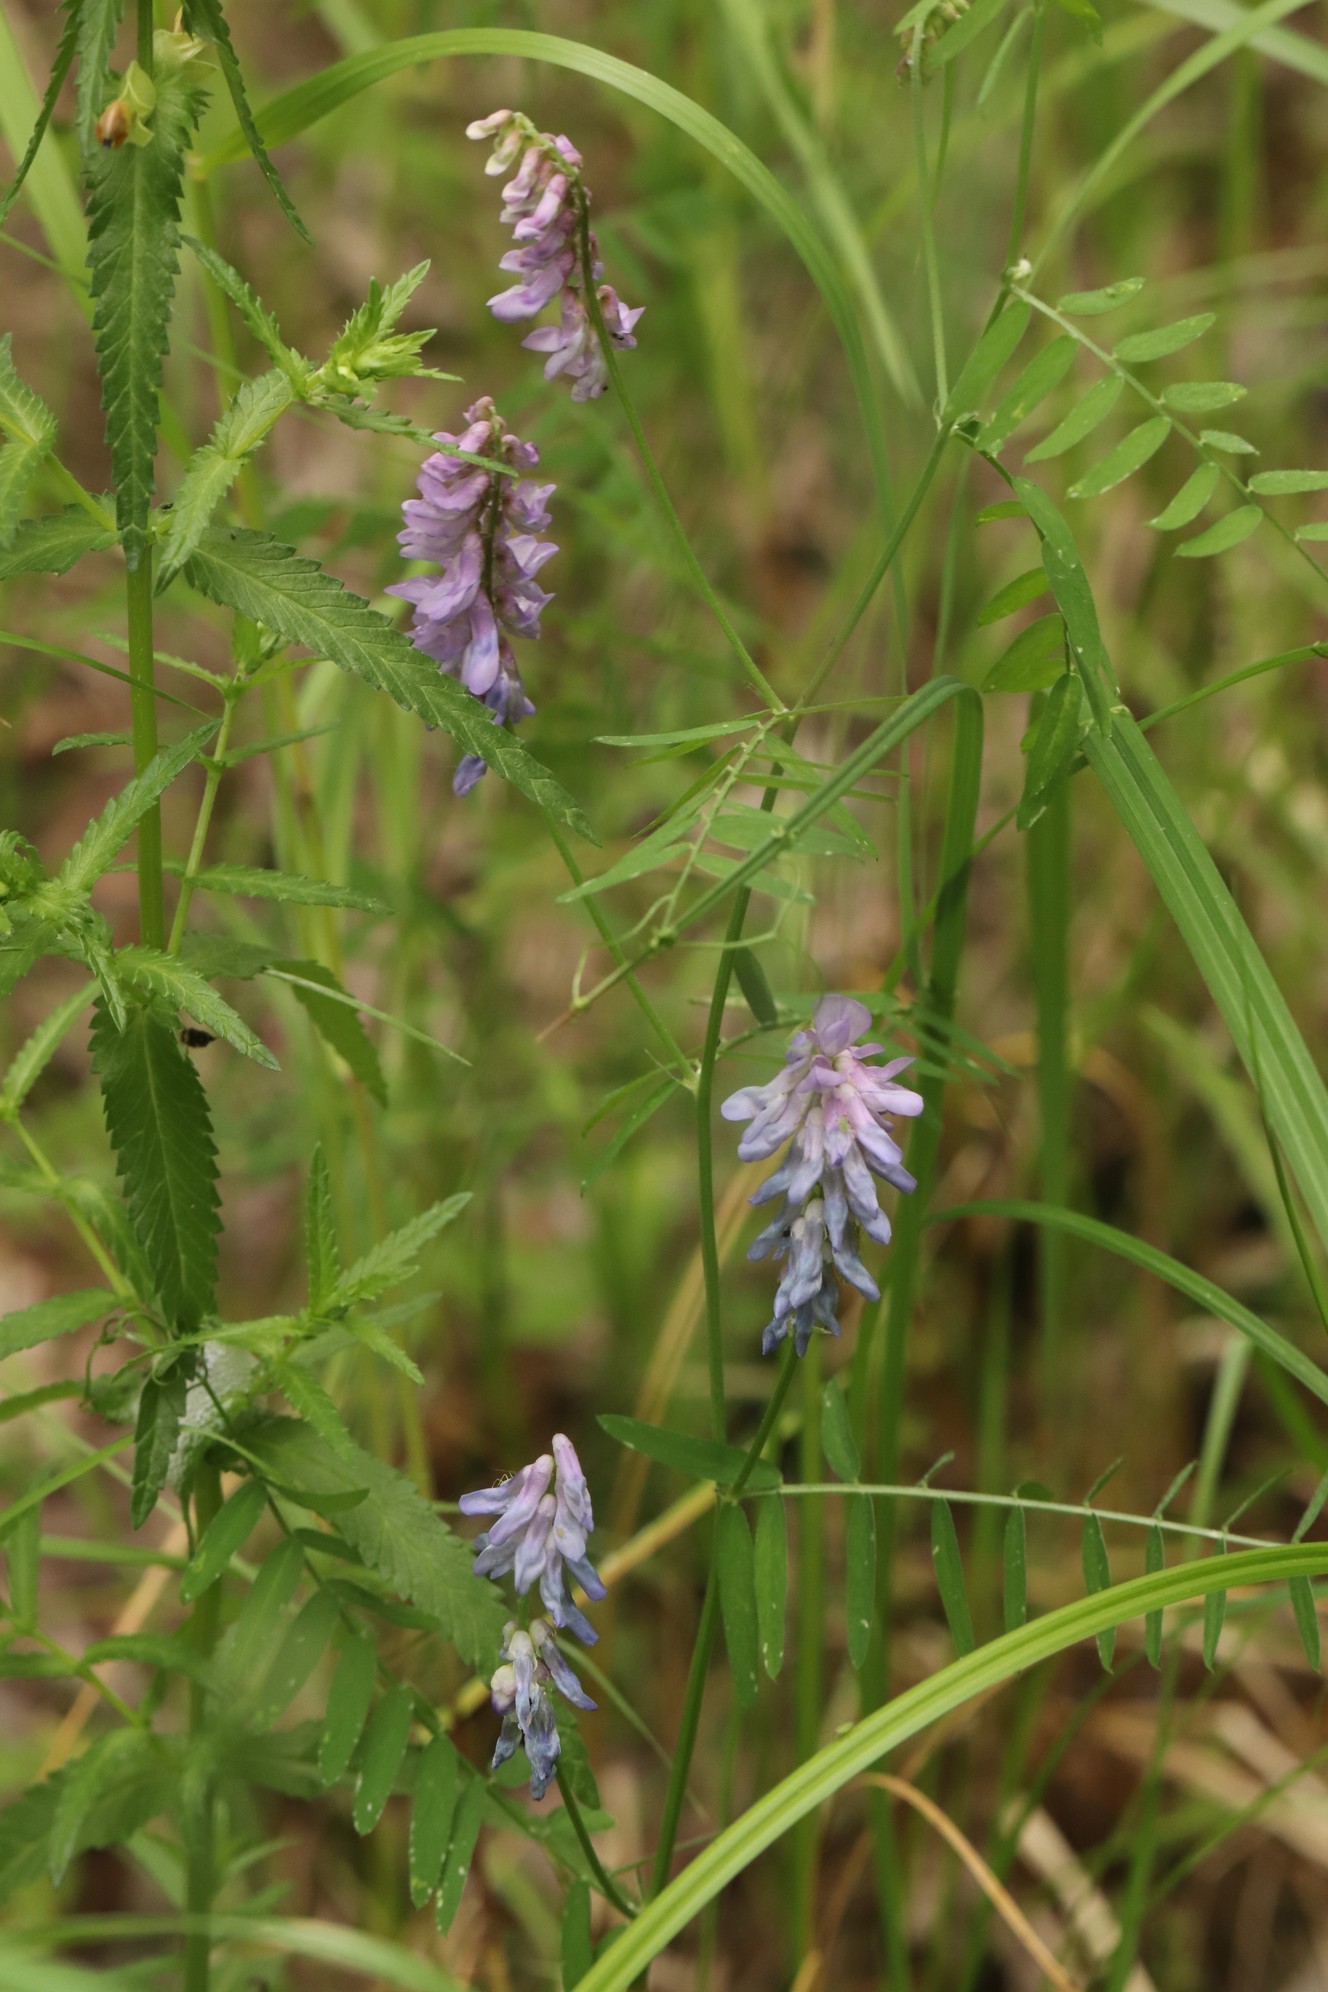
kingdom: Plantae
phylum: Tracheophyta
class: Magnoliopsida
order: Fabales
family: Fabaceae
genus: Vicia
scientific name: Vicia cracca
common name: Bird vetch
